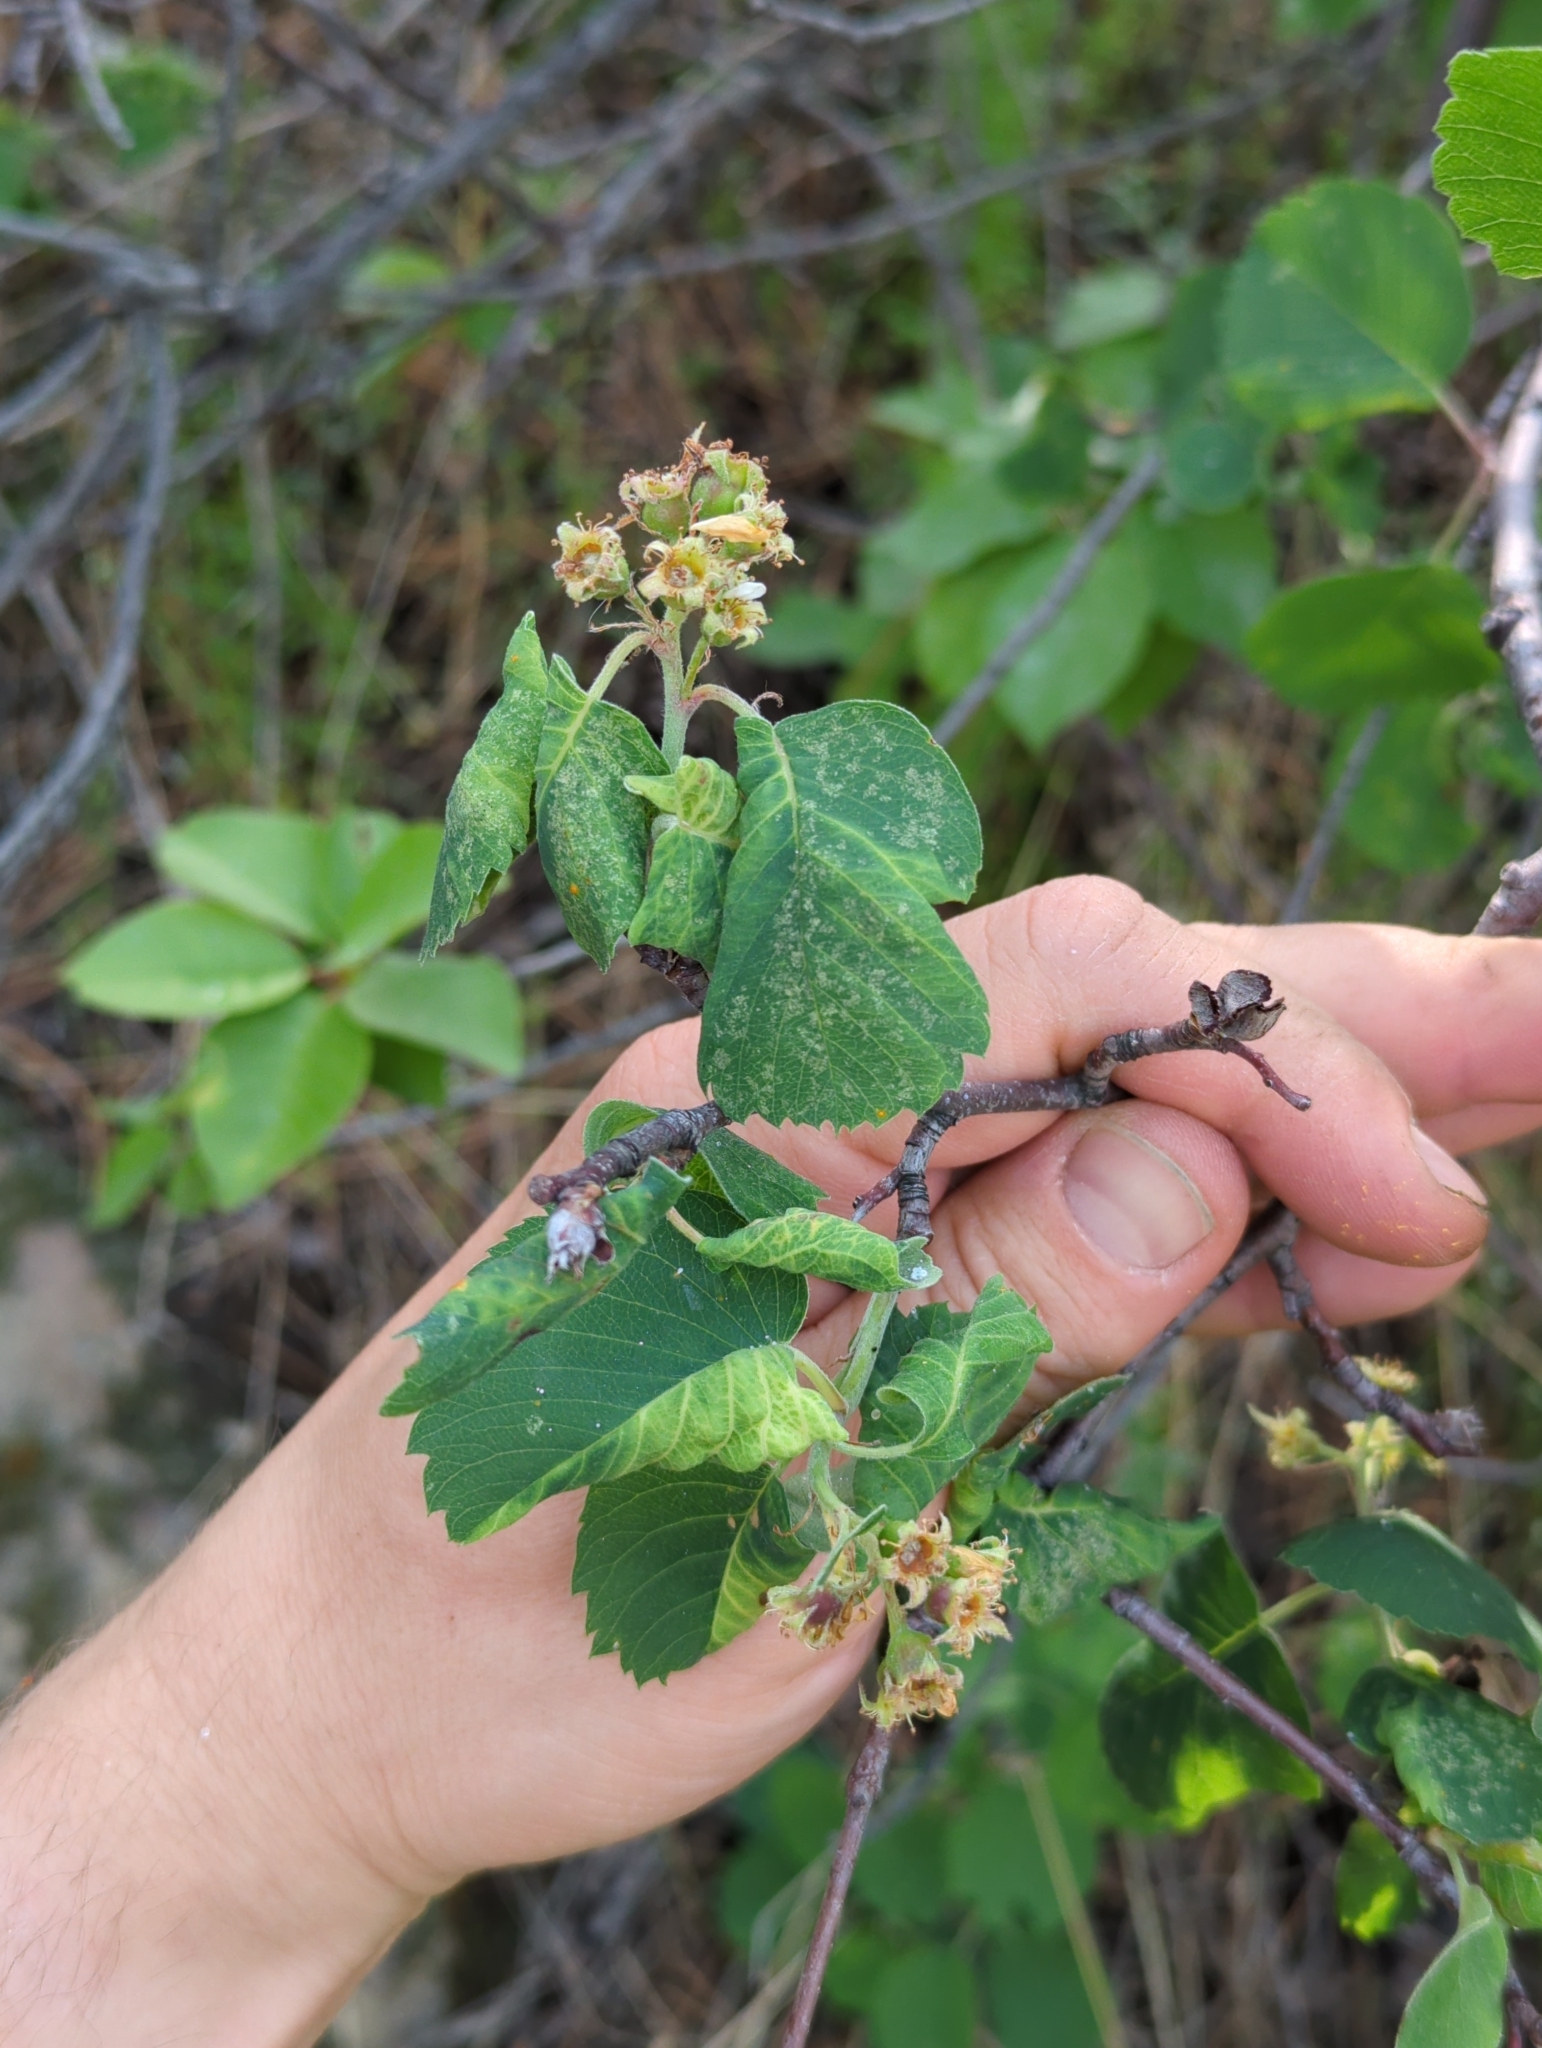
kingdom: Plantae
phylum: Tracheophyta
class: Magnoliopsida
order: Rosales
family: Rosaceae
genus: Amelanchier
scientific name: Amelanchier alnifolia
